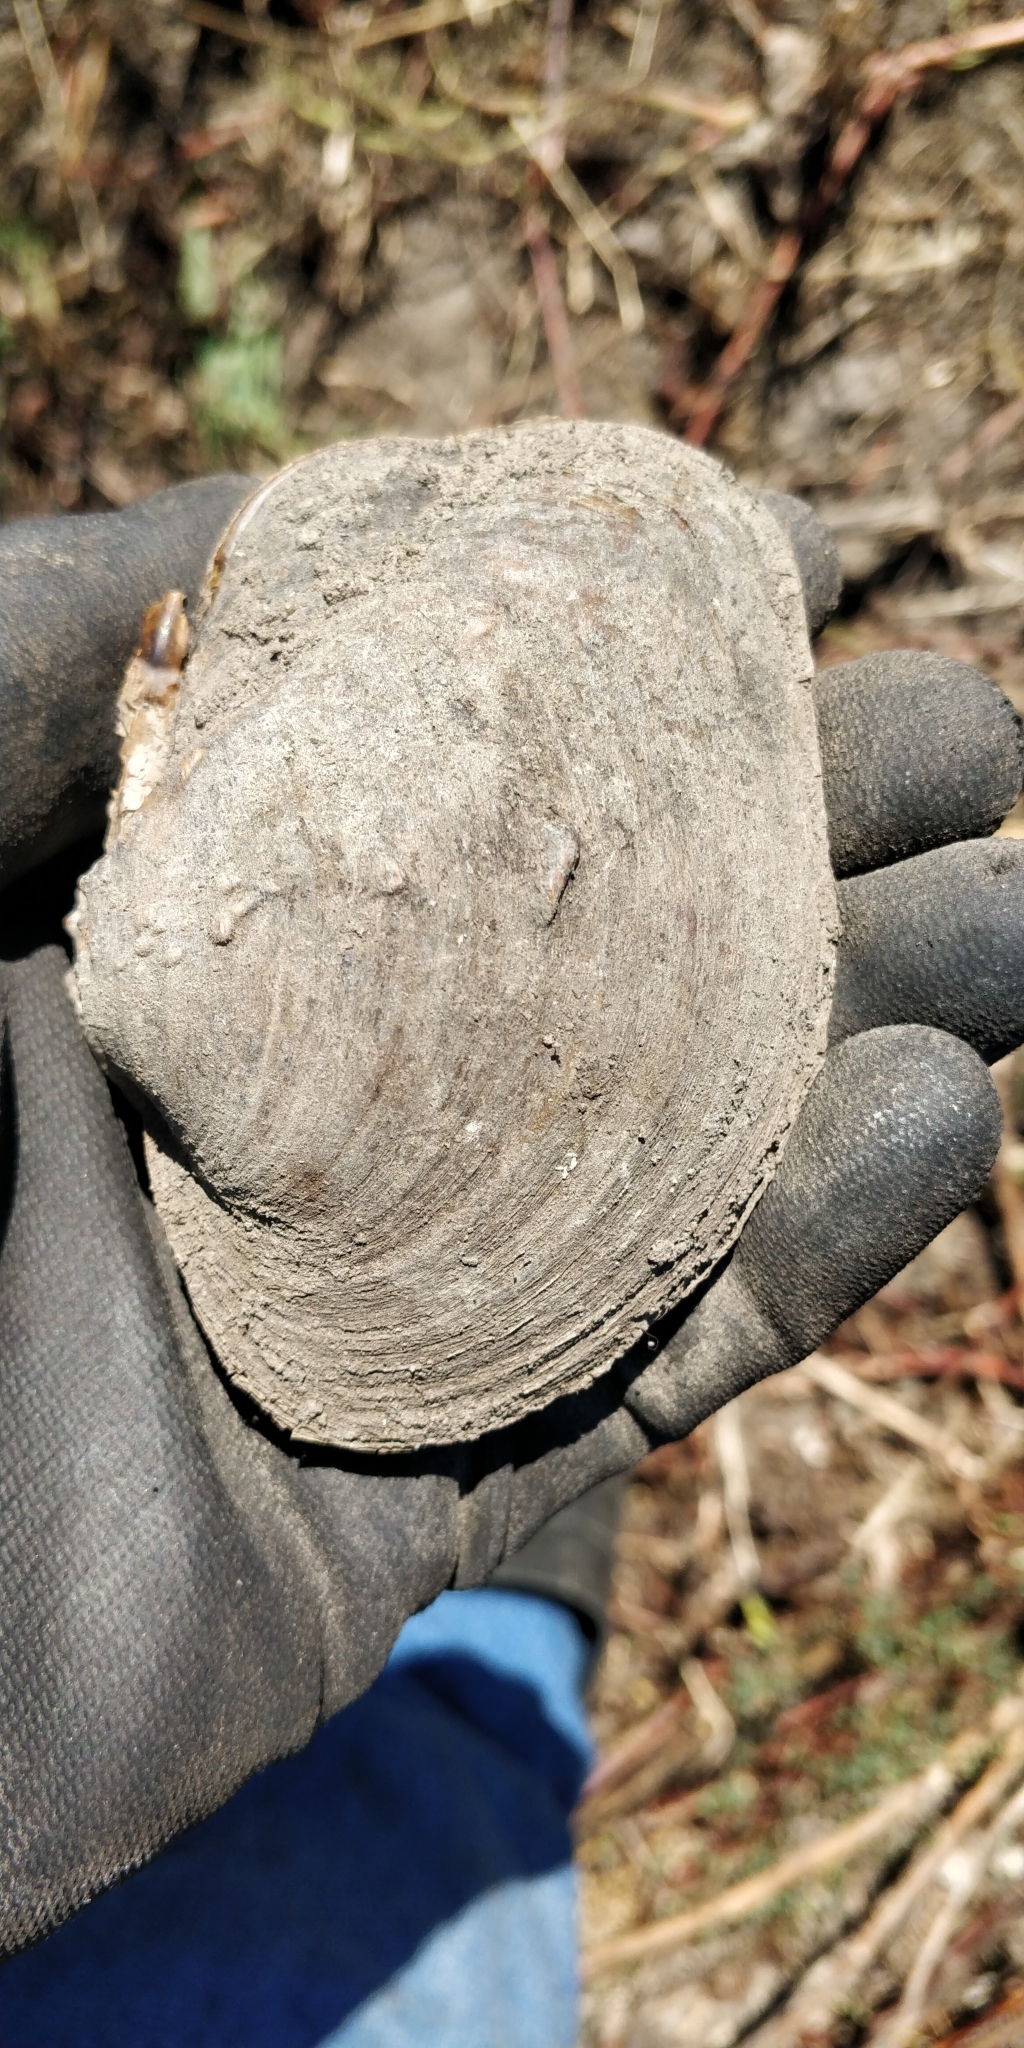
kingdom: Animalia
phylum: Mollusca
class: Bivalvia
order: Unionida
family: Unionidae
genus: Quadrula
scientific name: Quadrula quadrula
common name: Mapleleaf
